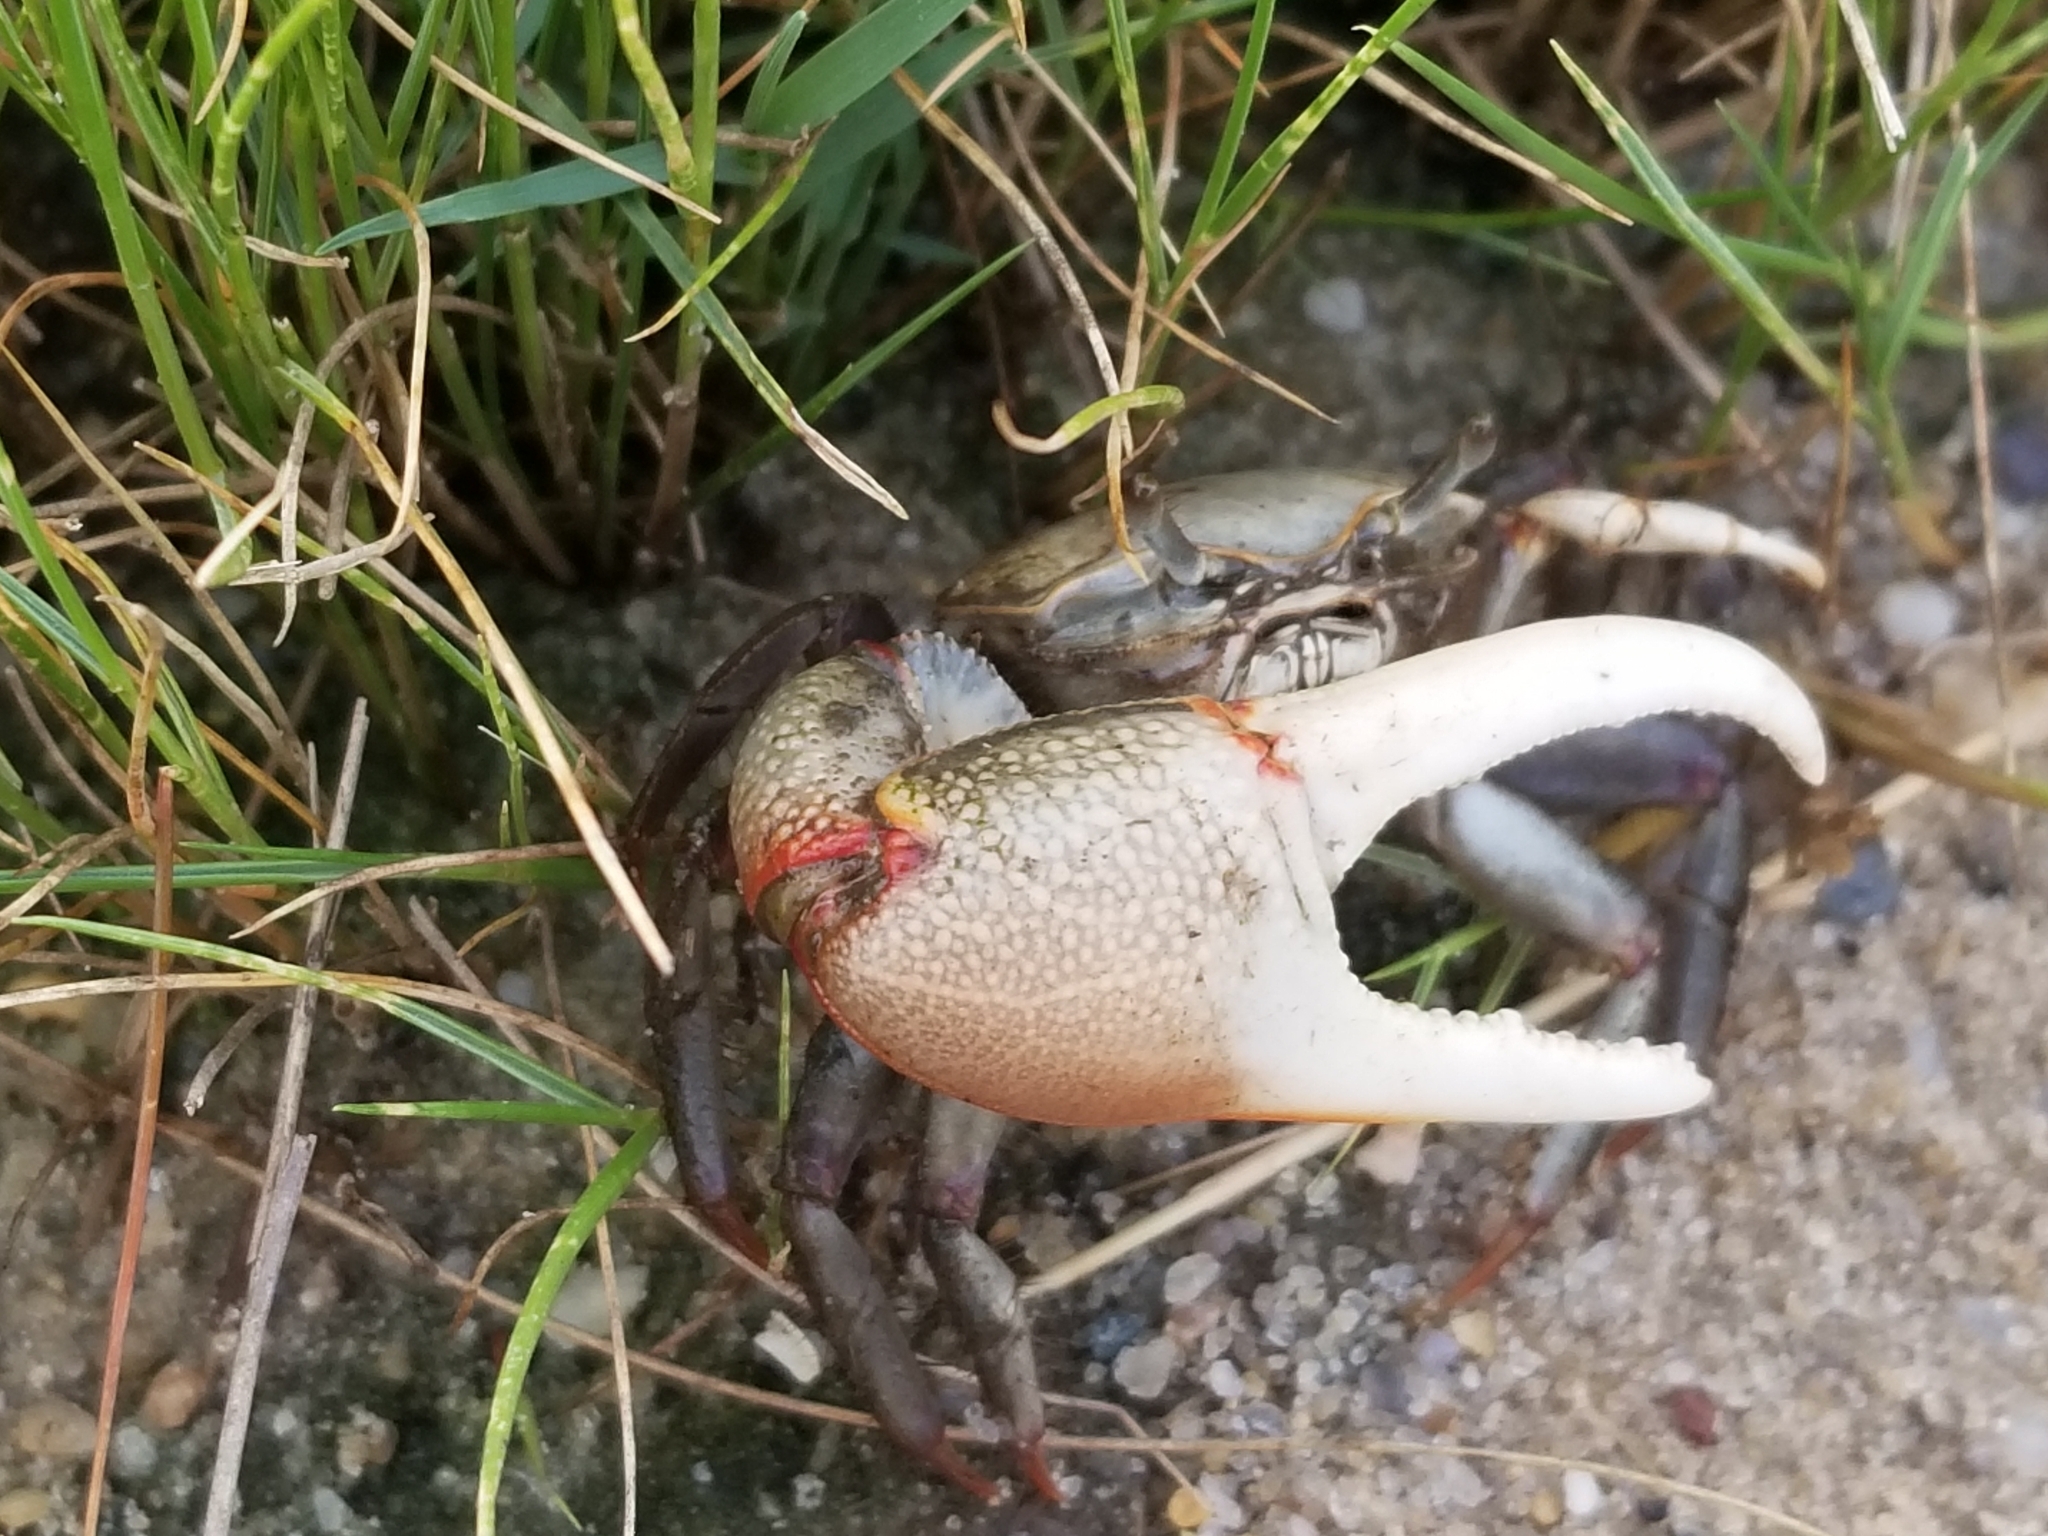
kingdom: Animalia
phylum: Arthropoda
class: Malacostraca
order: Decapoda
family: Ocypodidae
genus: Minuca
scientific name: Minuca minax
